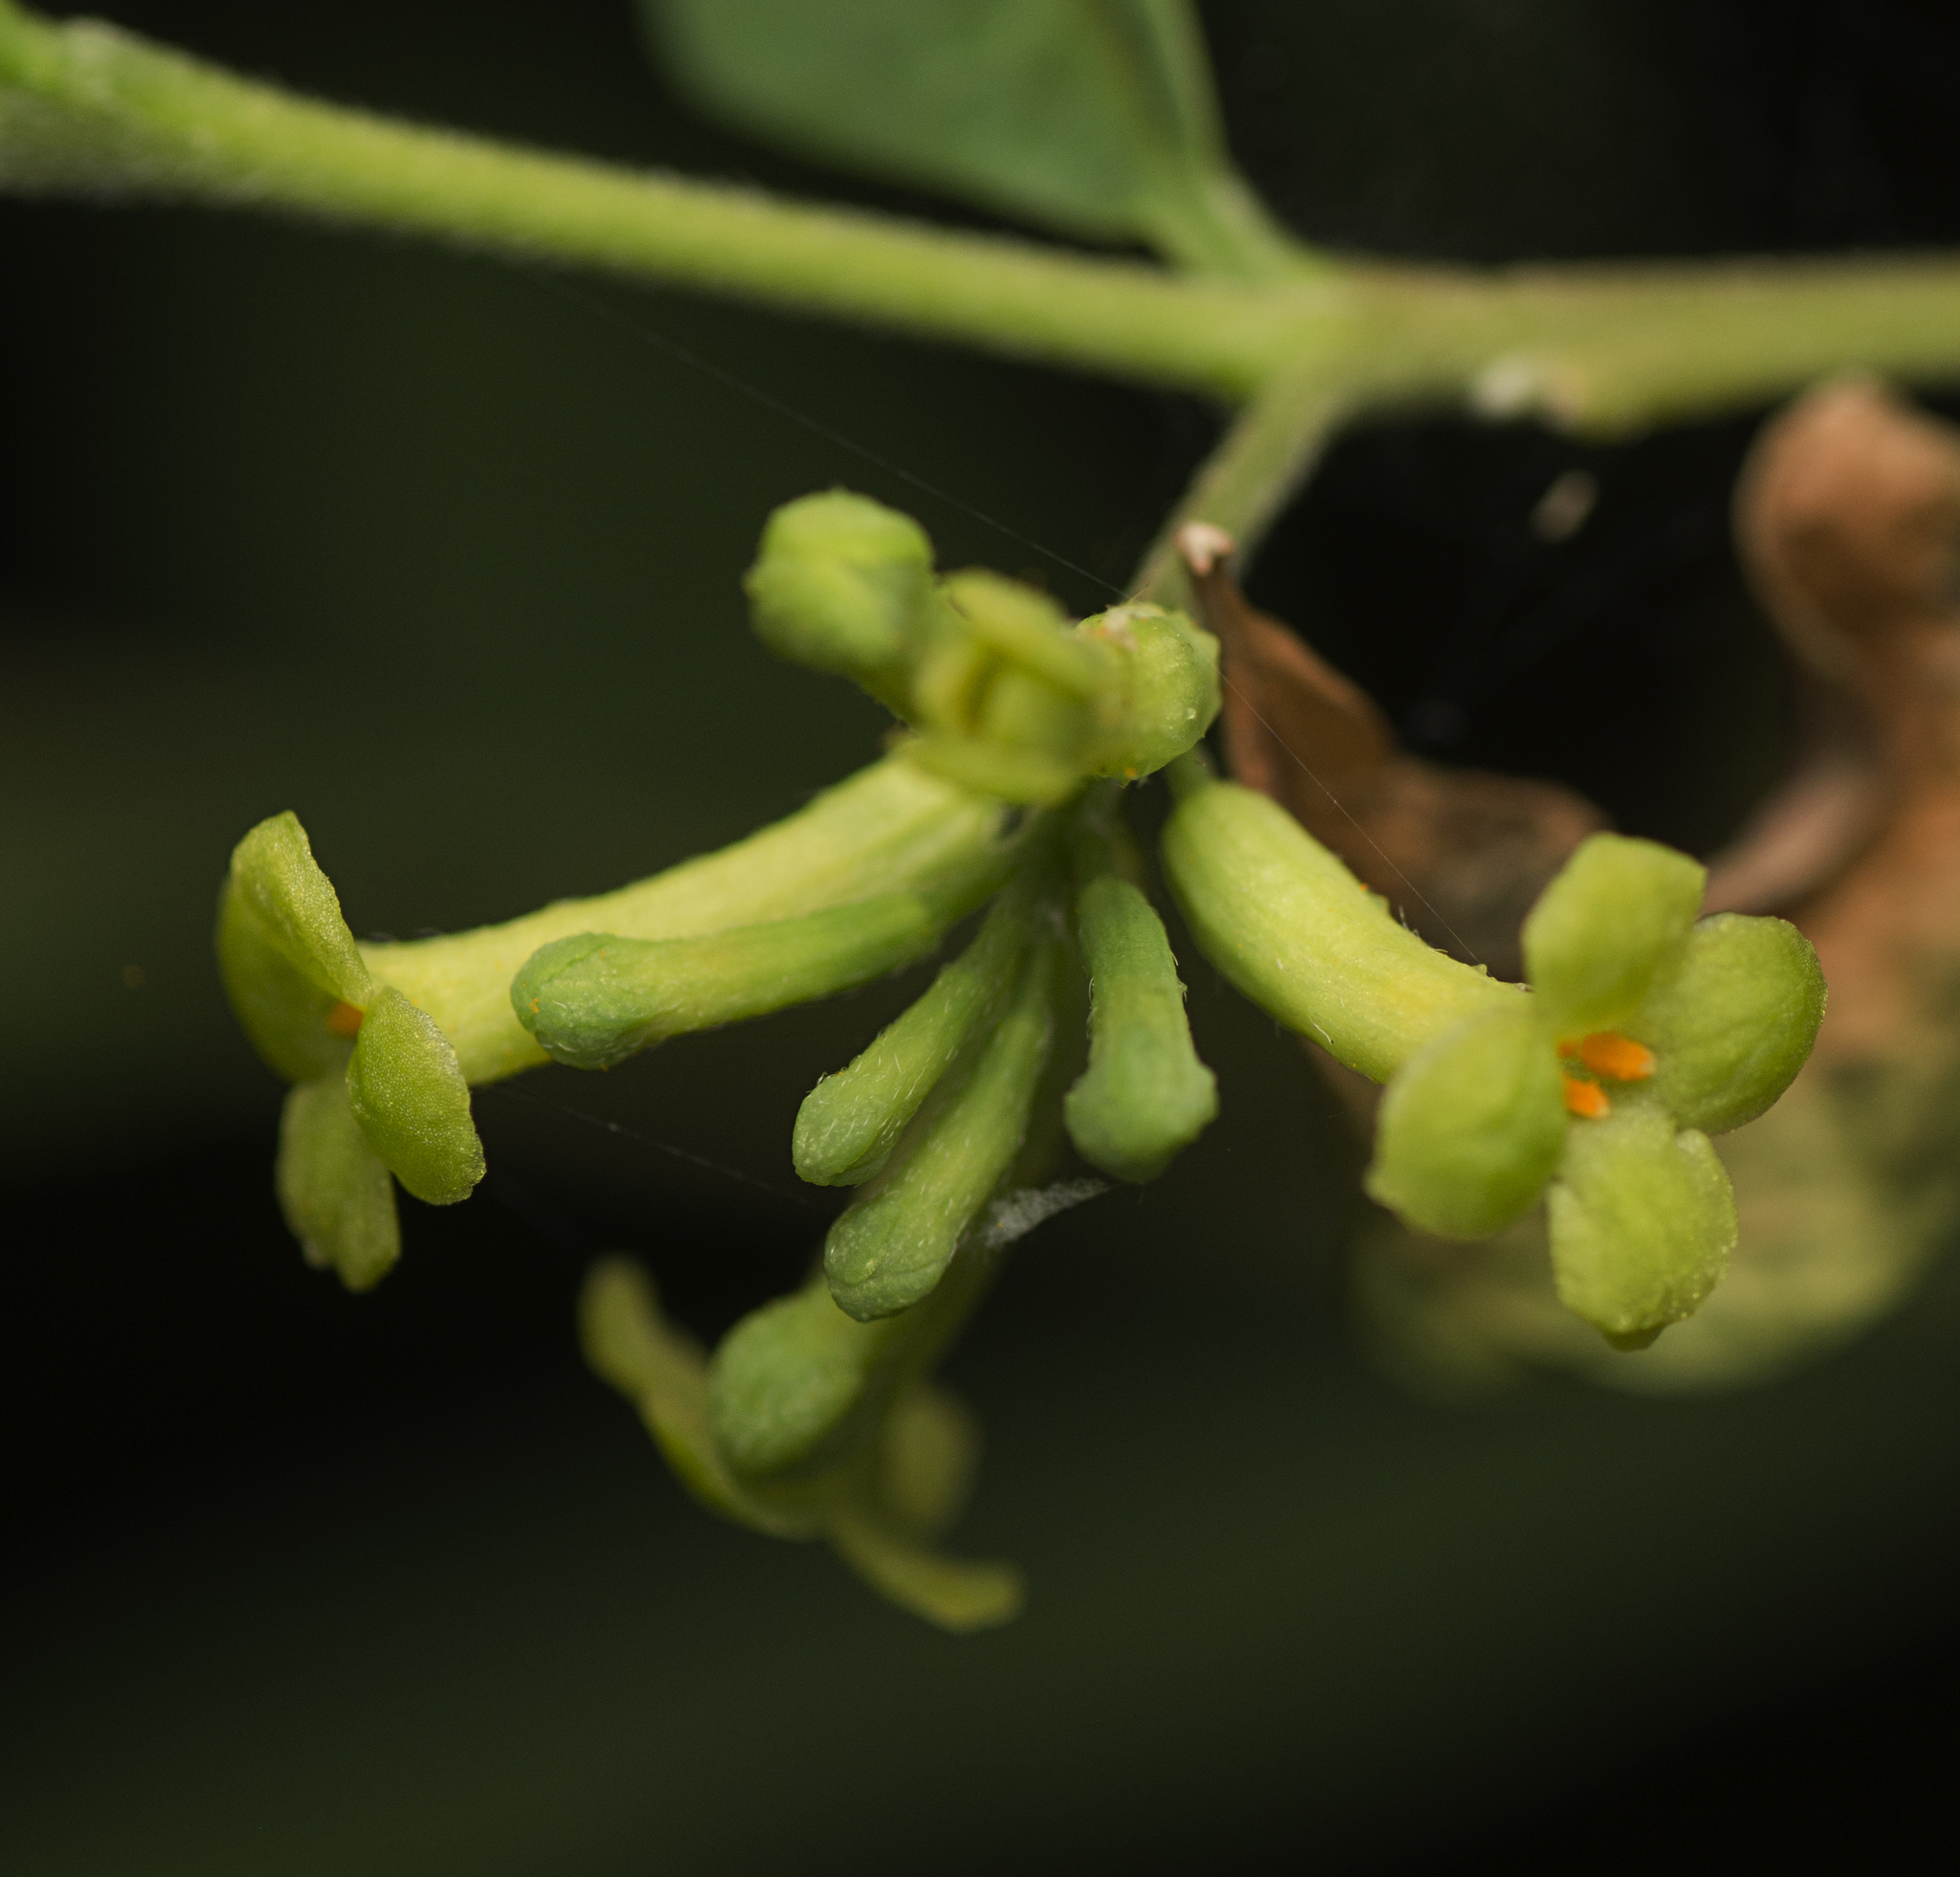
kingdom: Plantae
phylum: Tracheophyta
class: Magnoliopsida
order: Malvales
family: Thymelaeaceae
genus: Wikstroemia
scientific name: Wikstroemia indica
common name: Tiebush
